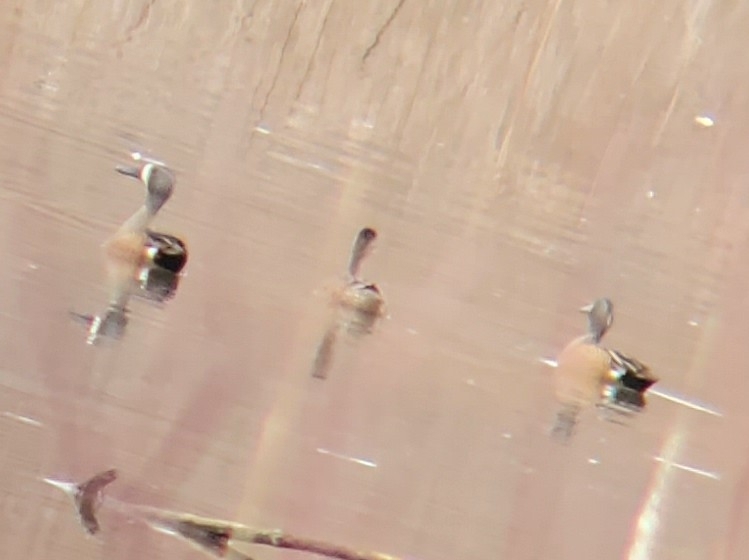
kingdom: Animalia
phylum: Chordata
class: Aves
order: Anseriformes
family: Anatidae
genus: Spatula
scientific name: Spatula discors
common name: Blue-winged teal
